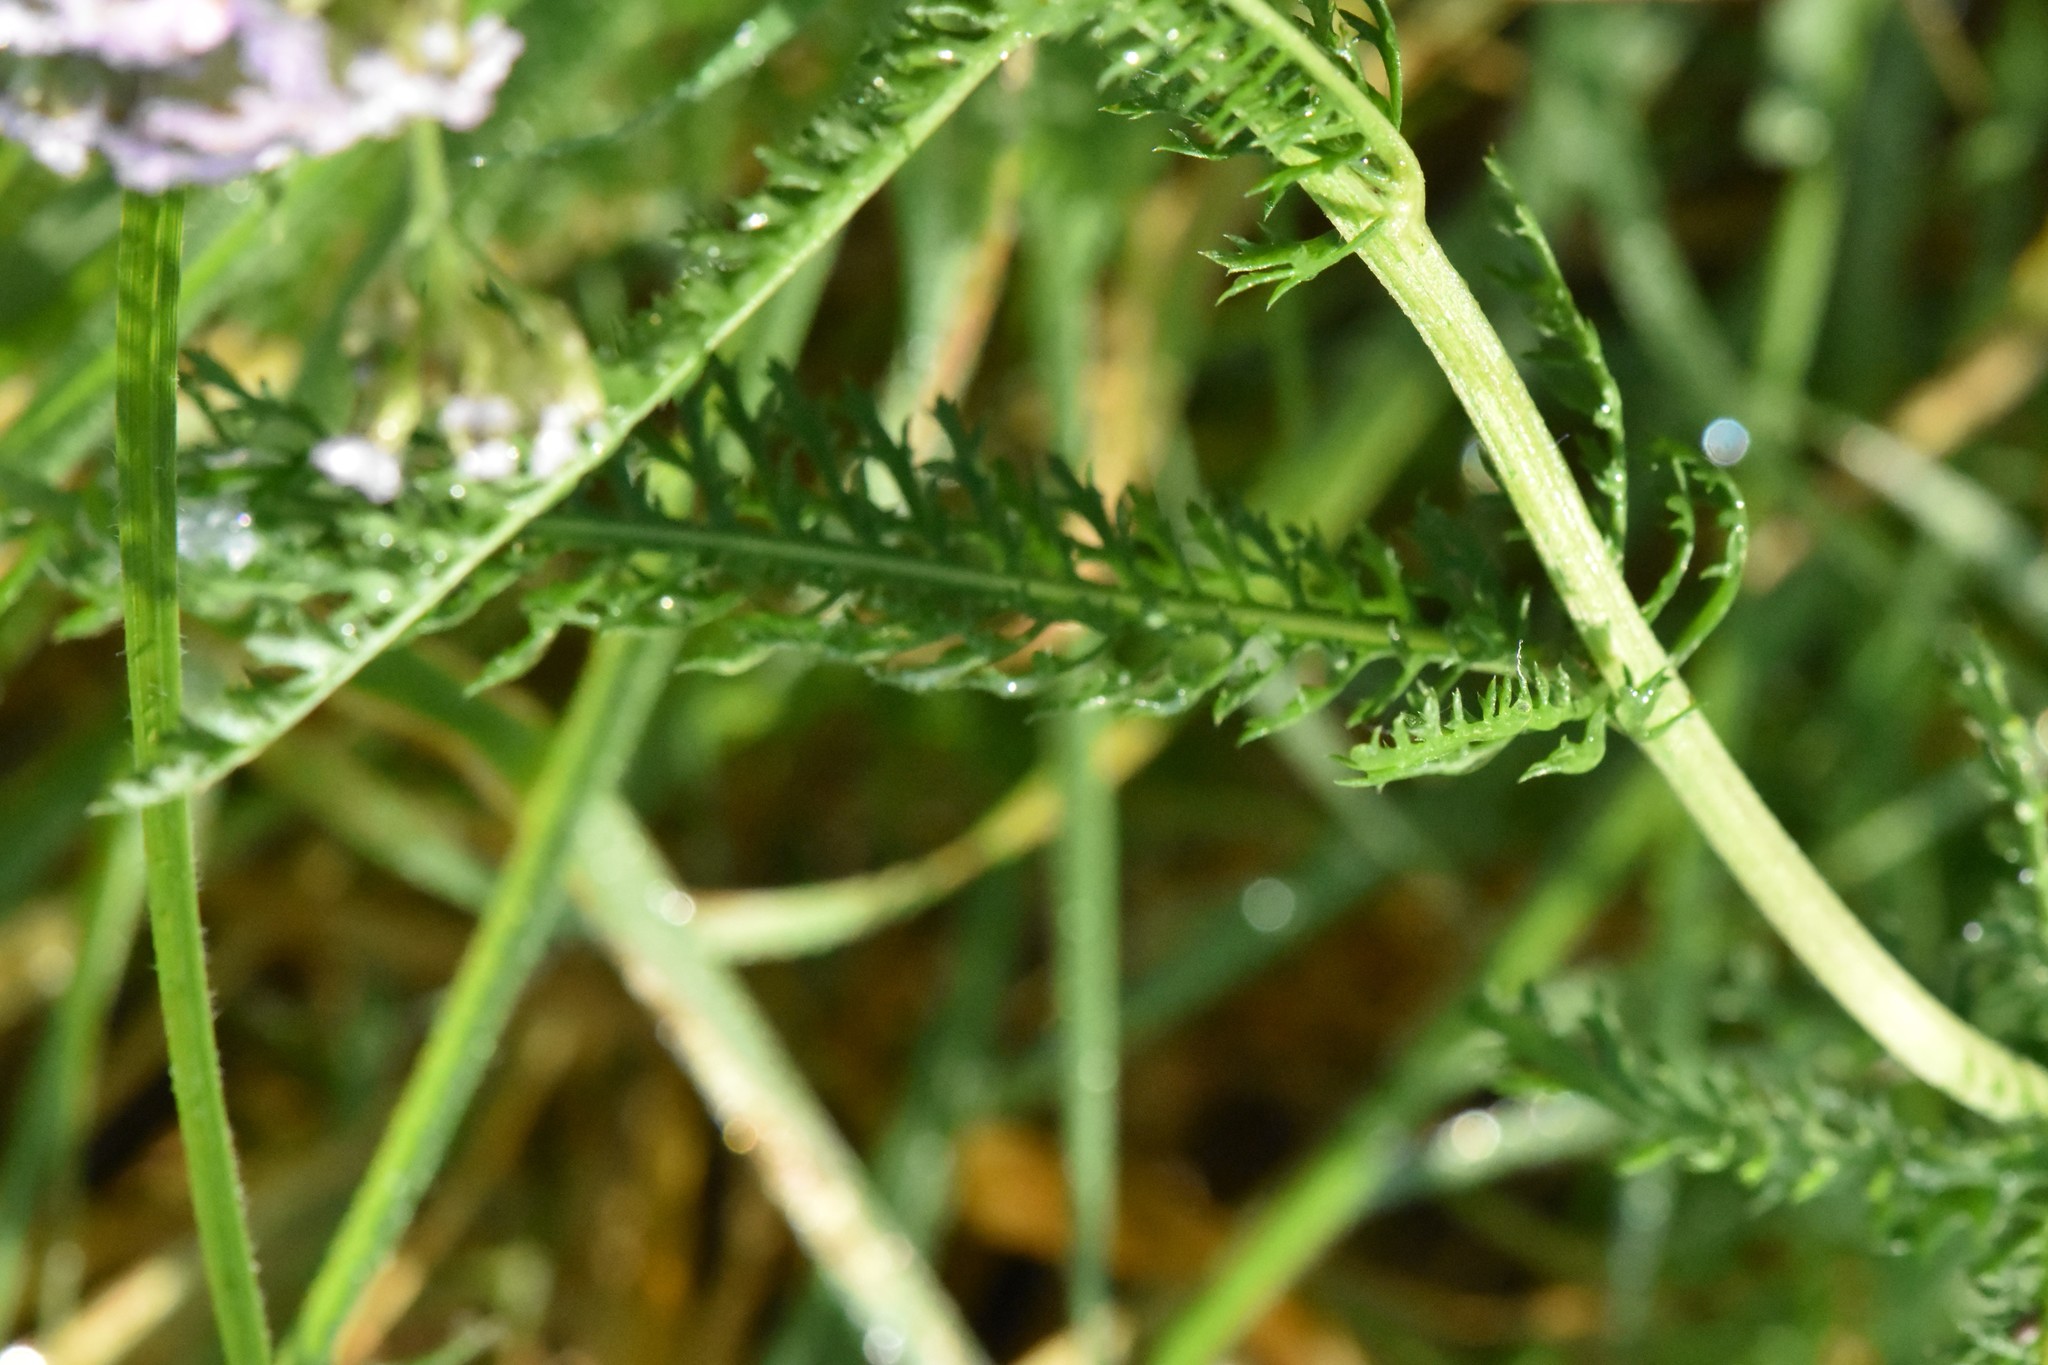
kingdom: Plantae
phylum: Tracheophyta
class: Magnoliopsida
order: Asterales
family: Asteraceae
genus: Achillea
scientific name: Achillea millefolium
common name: Yarrow
